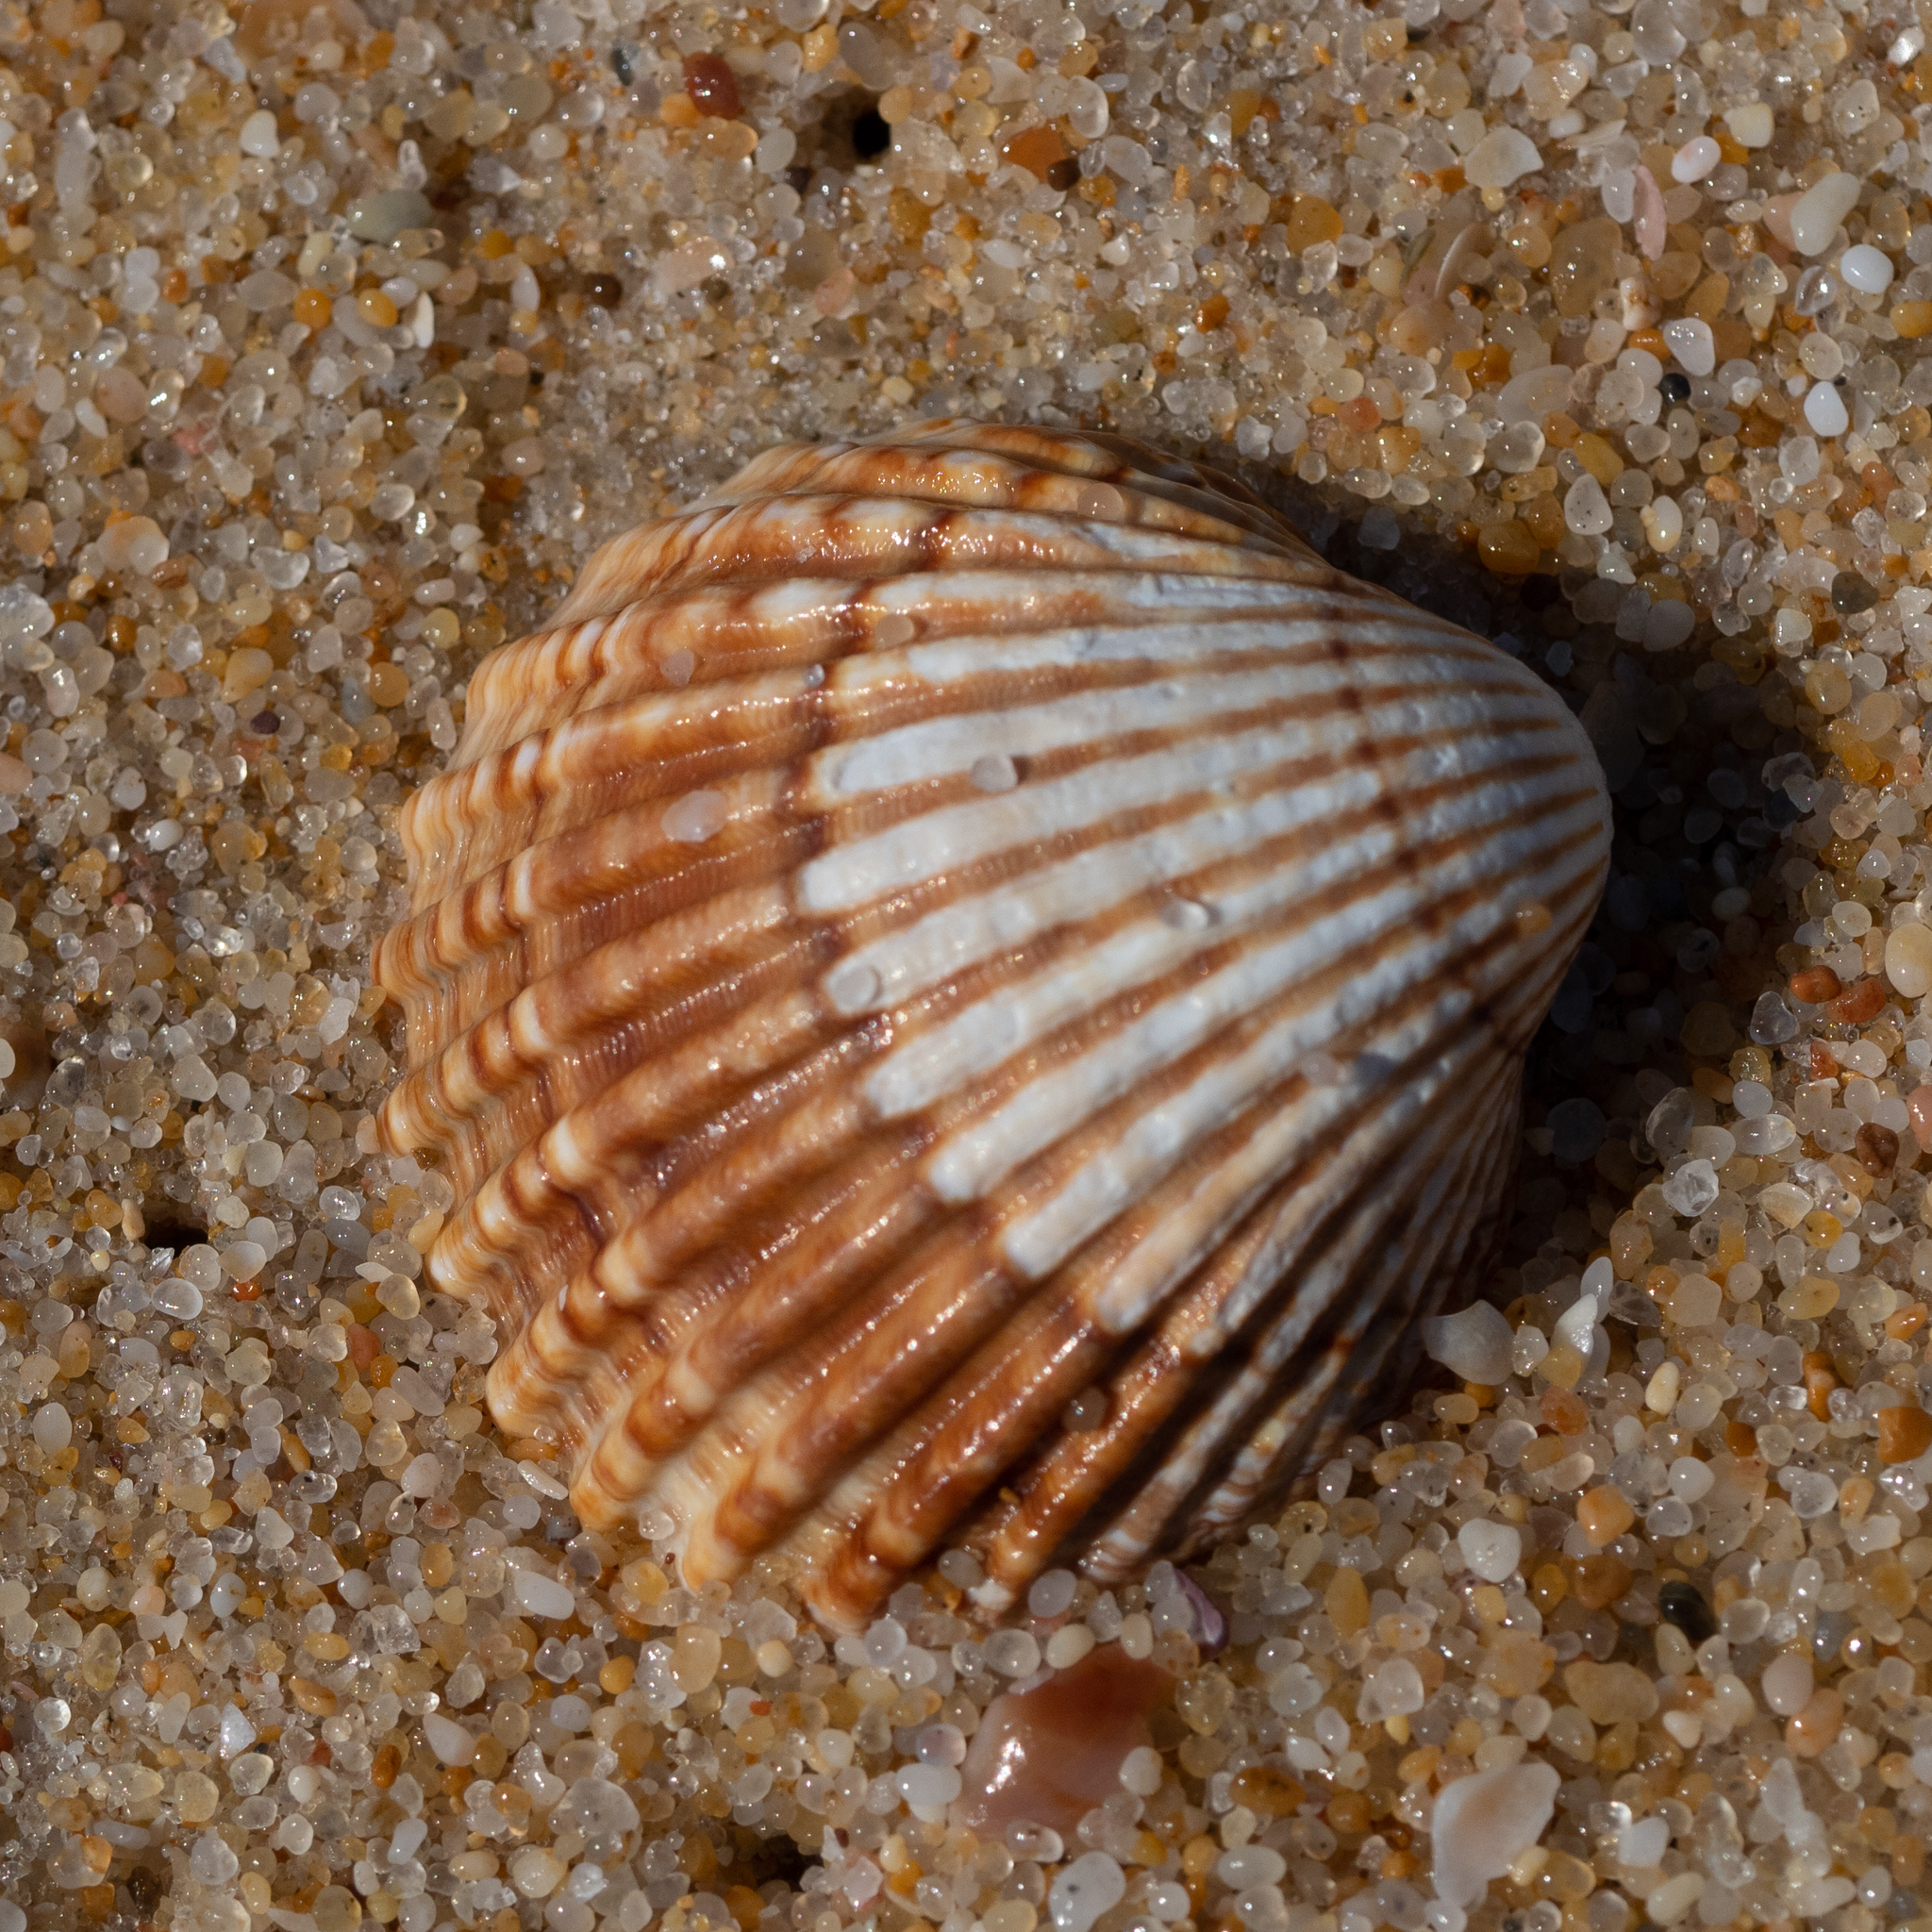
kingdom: Animalia
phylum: Mollusca
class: Bivalvia
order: Cardiida
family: Cardiidae
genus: Acanthocardia
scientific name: Acanthocardia tuberculata
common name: Rough cockle
